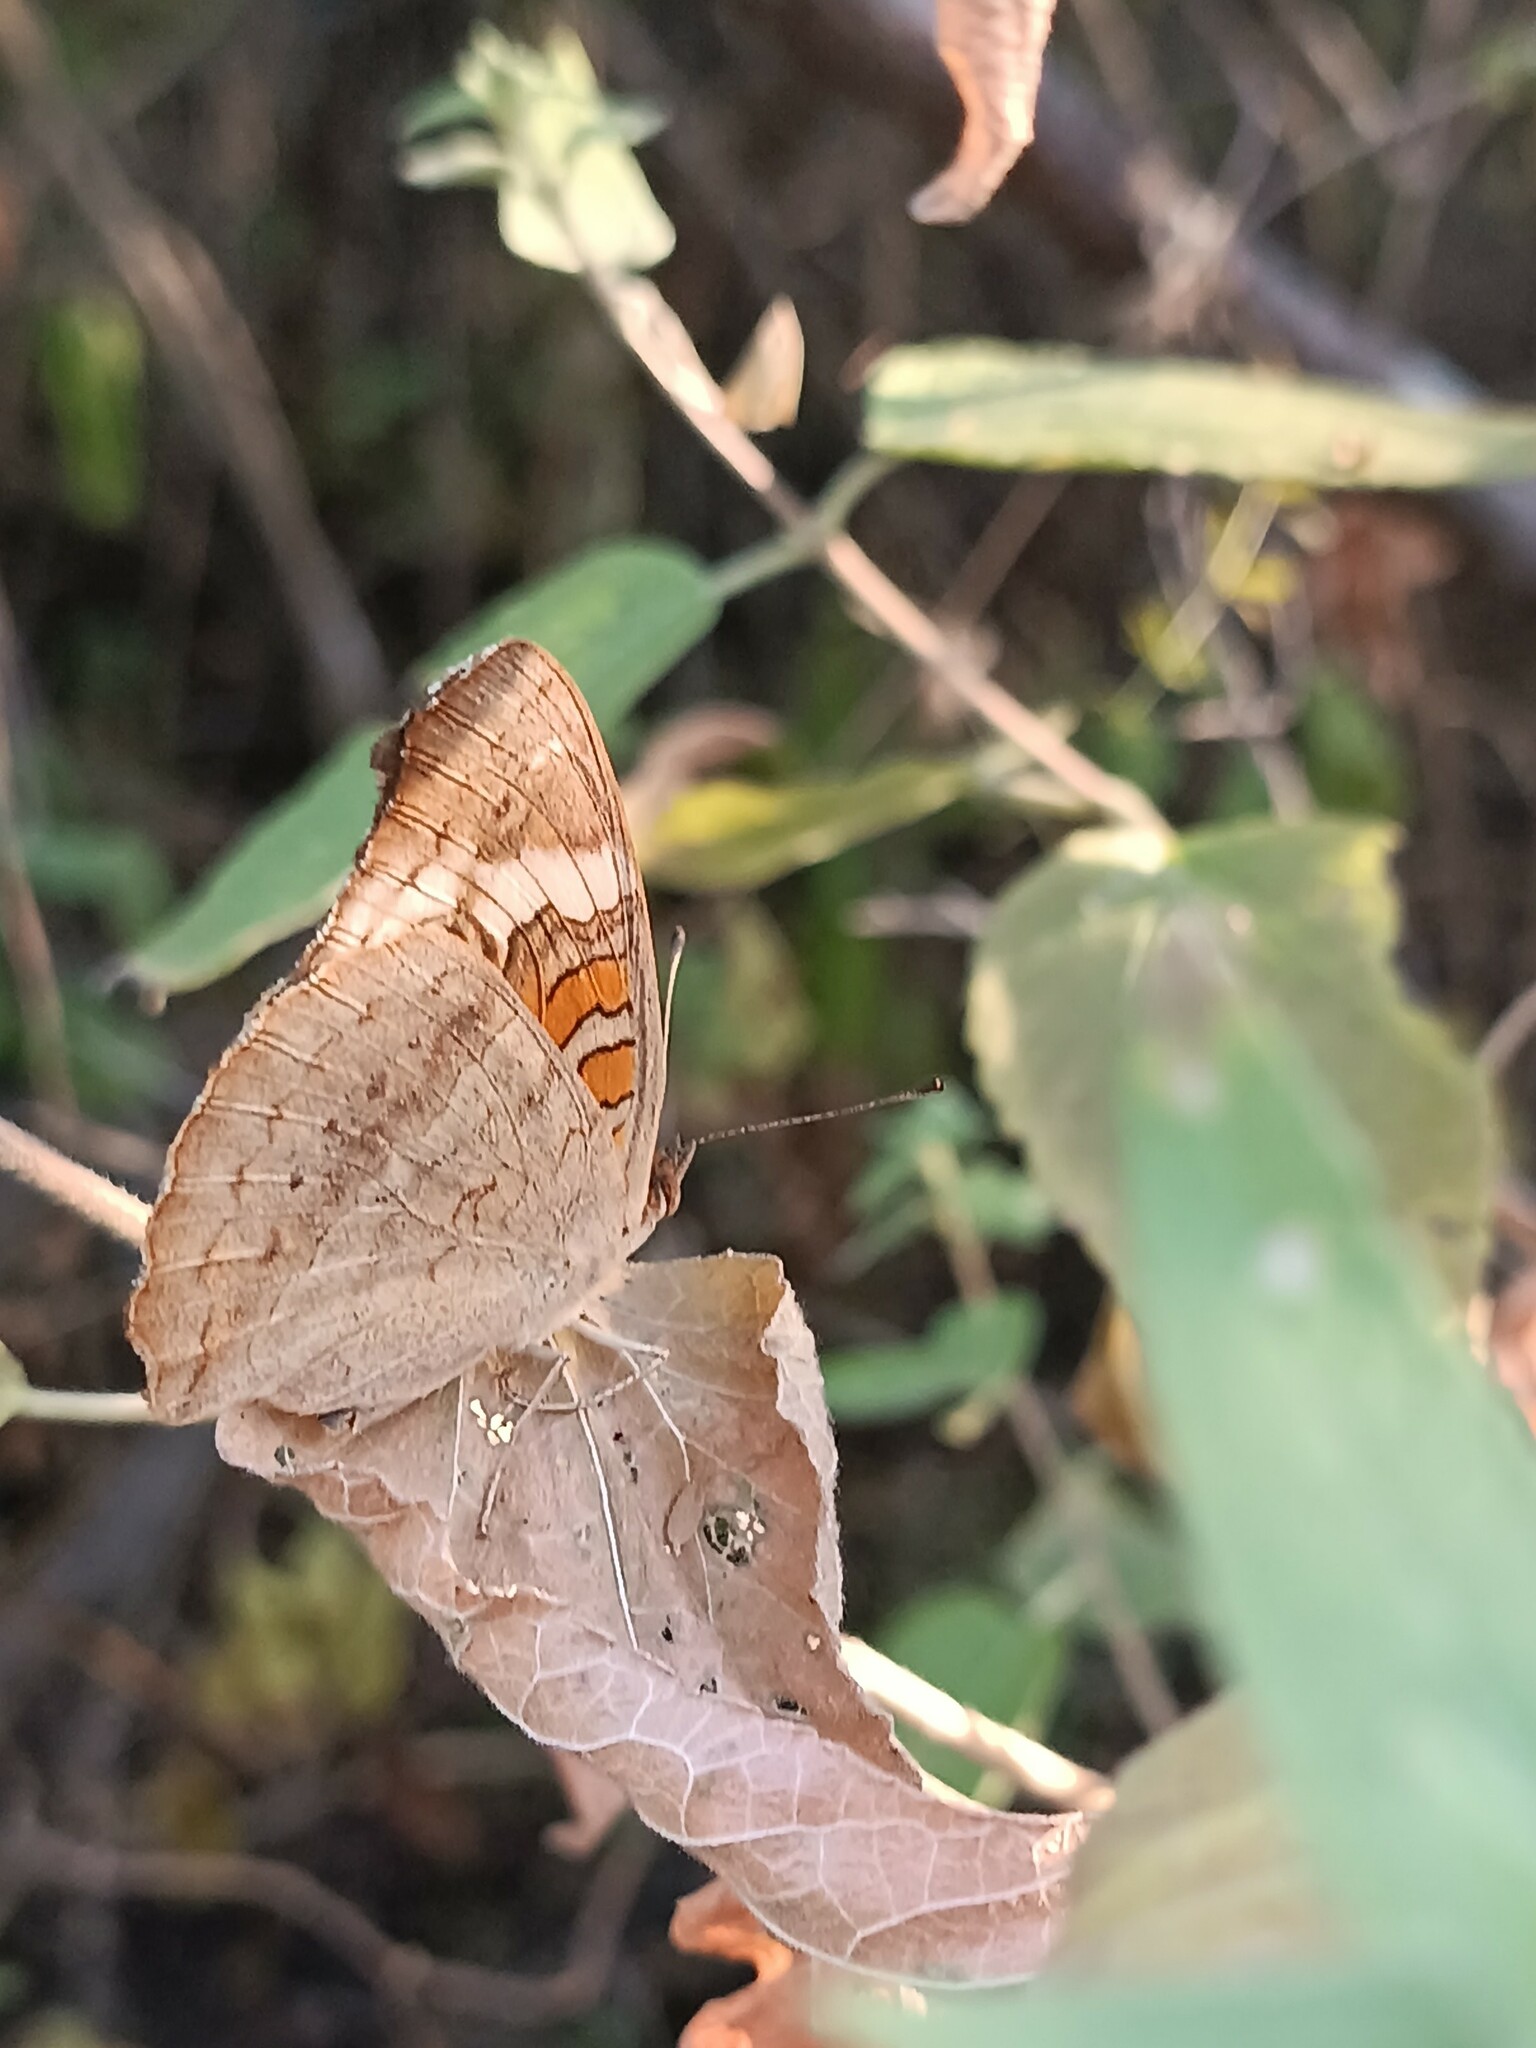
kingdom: Animalia
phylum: Arthropoda
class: Insecta
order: Lepidoptera
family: Nymphalidae
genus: Junonia
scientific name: Junonia coenia
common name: Common buckeye
